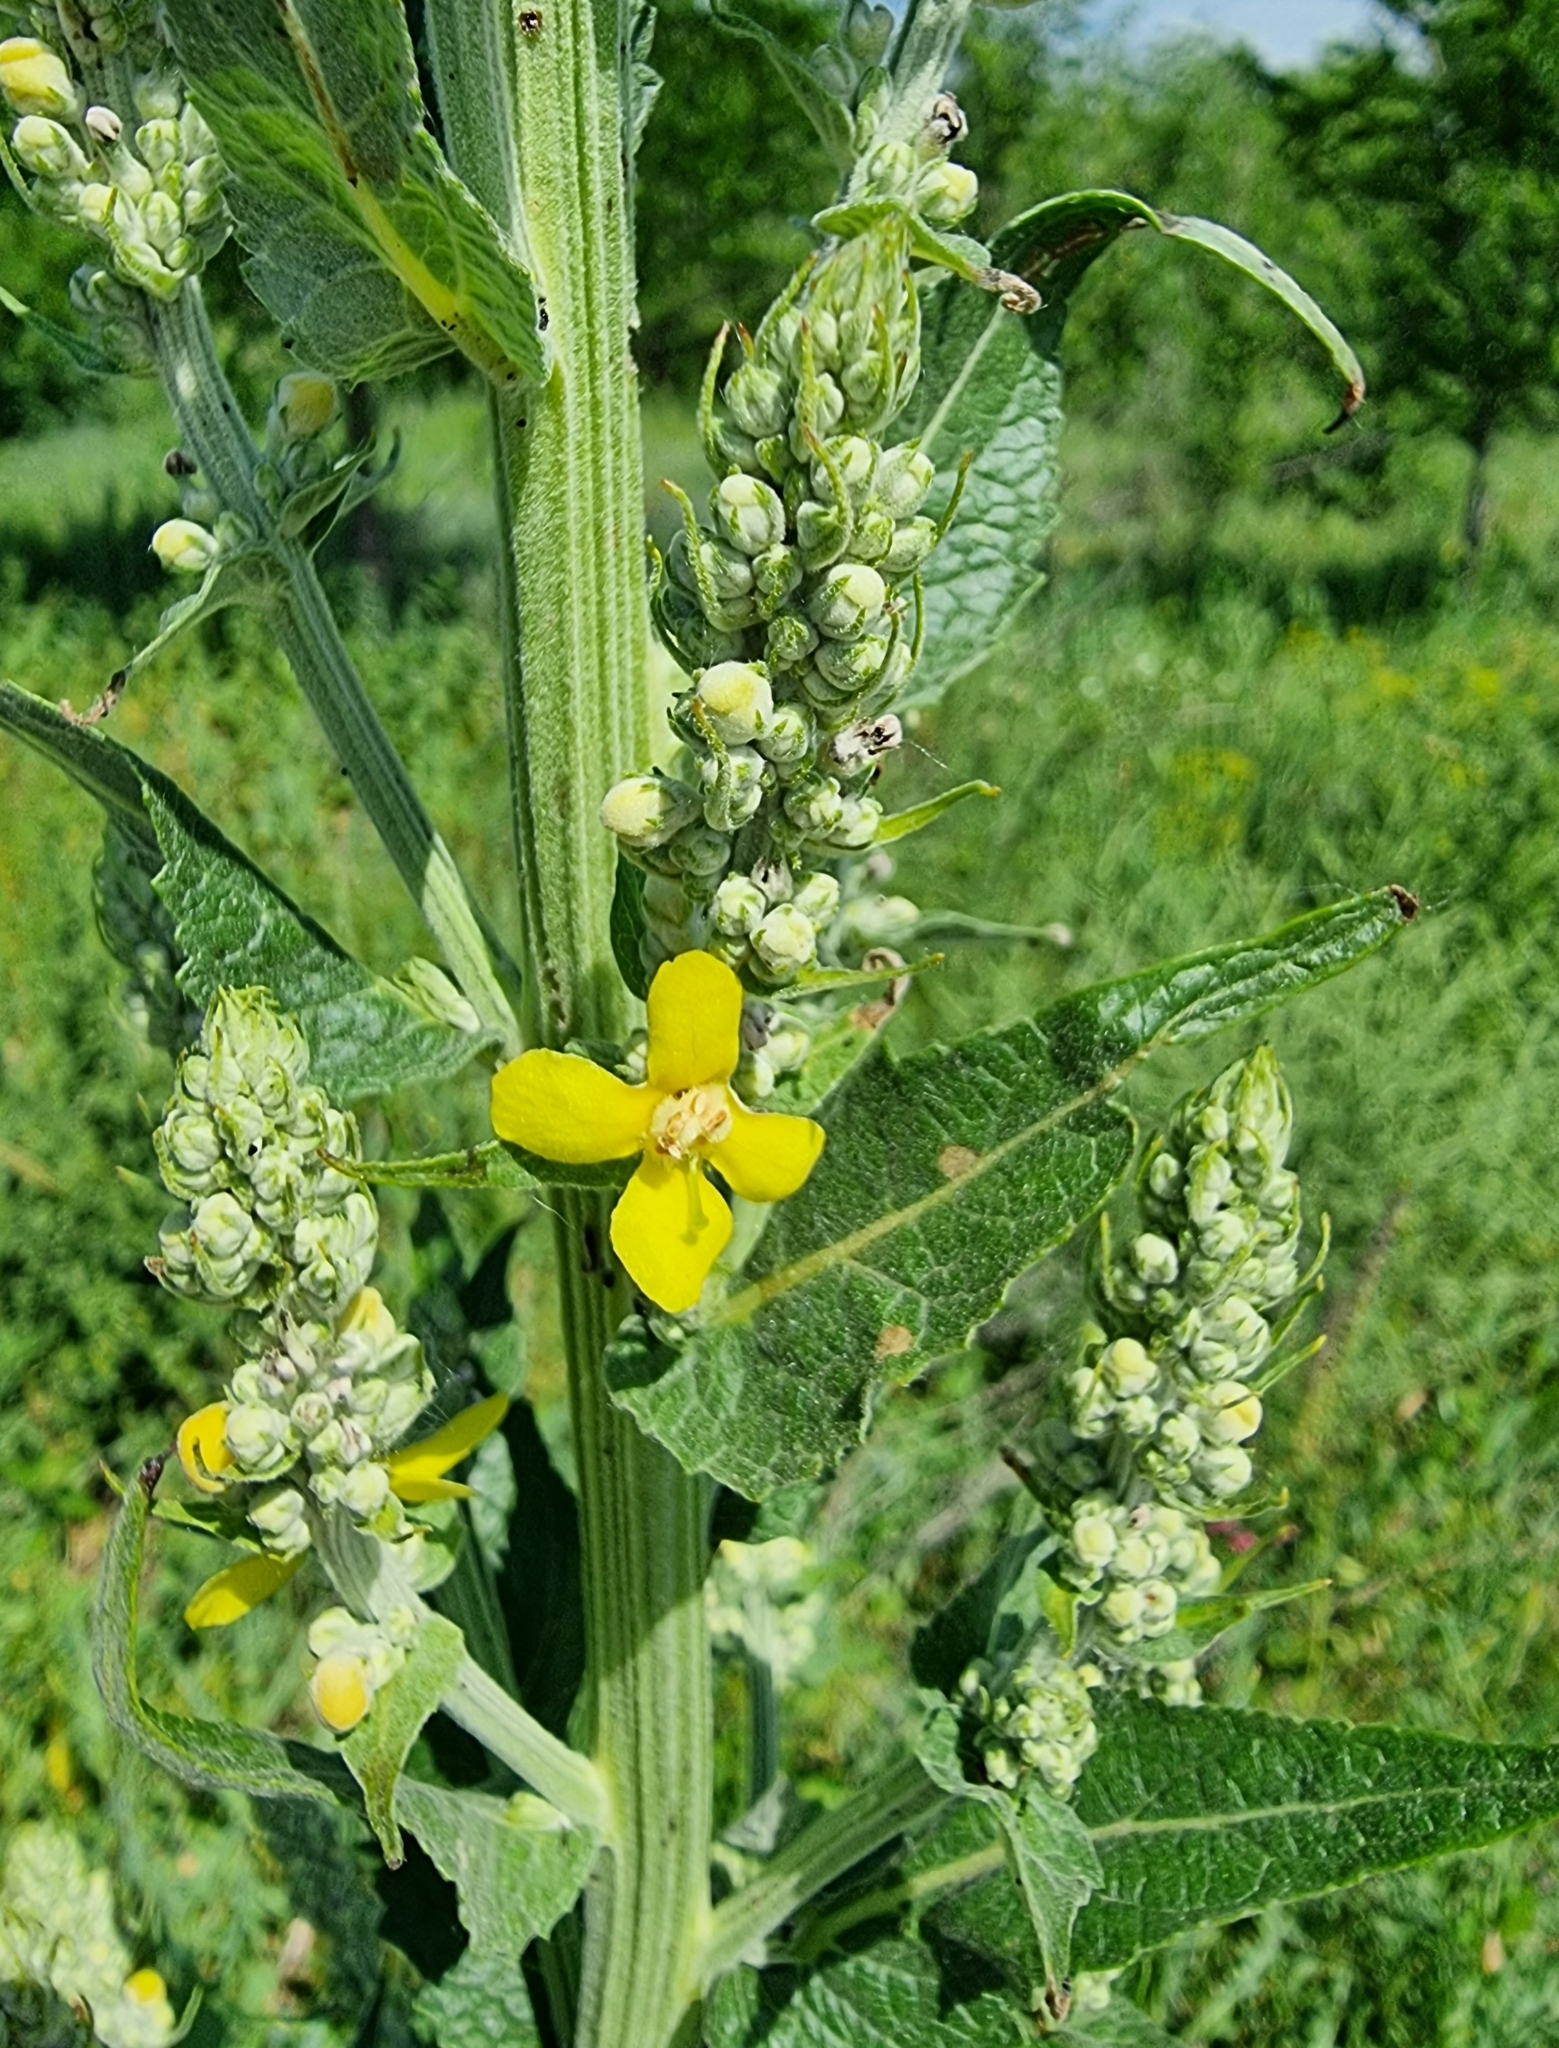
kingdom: Plantae
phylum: Tracheophyta
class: Magnoliopsida
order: Lamiales
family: Scrophulariaceae
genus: Verbascum
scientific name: Verbascum lychnitis
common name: White mullein
